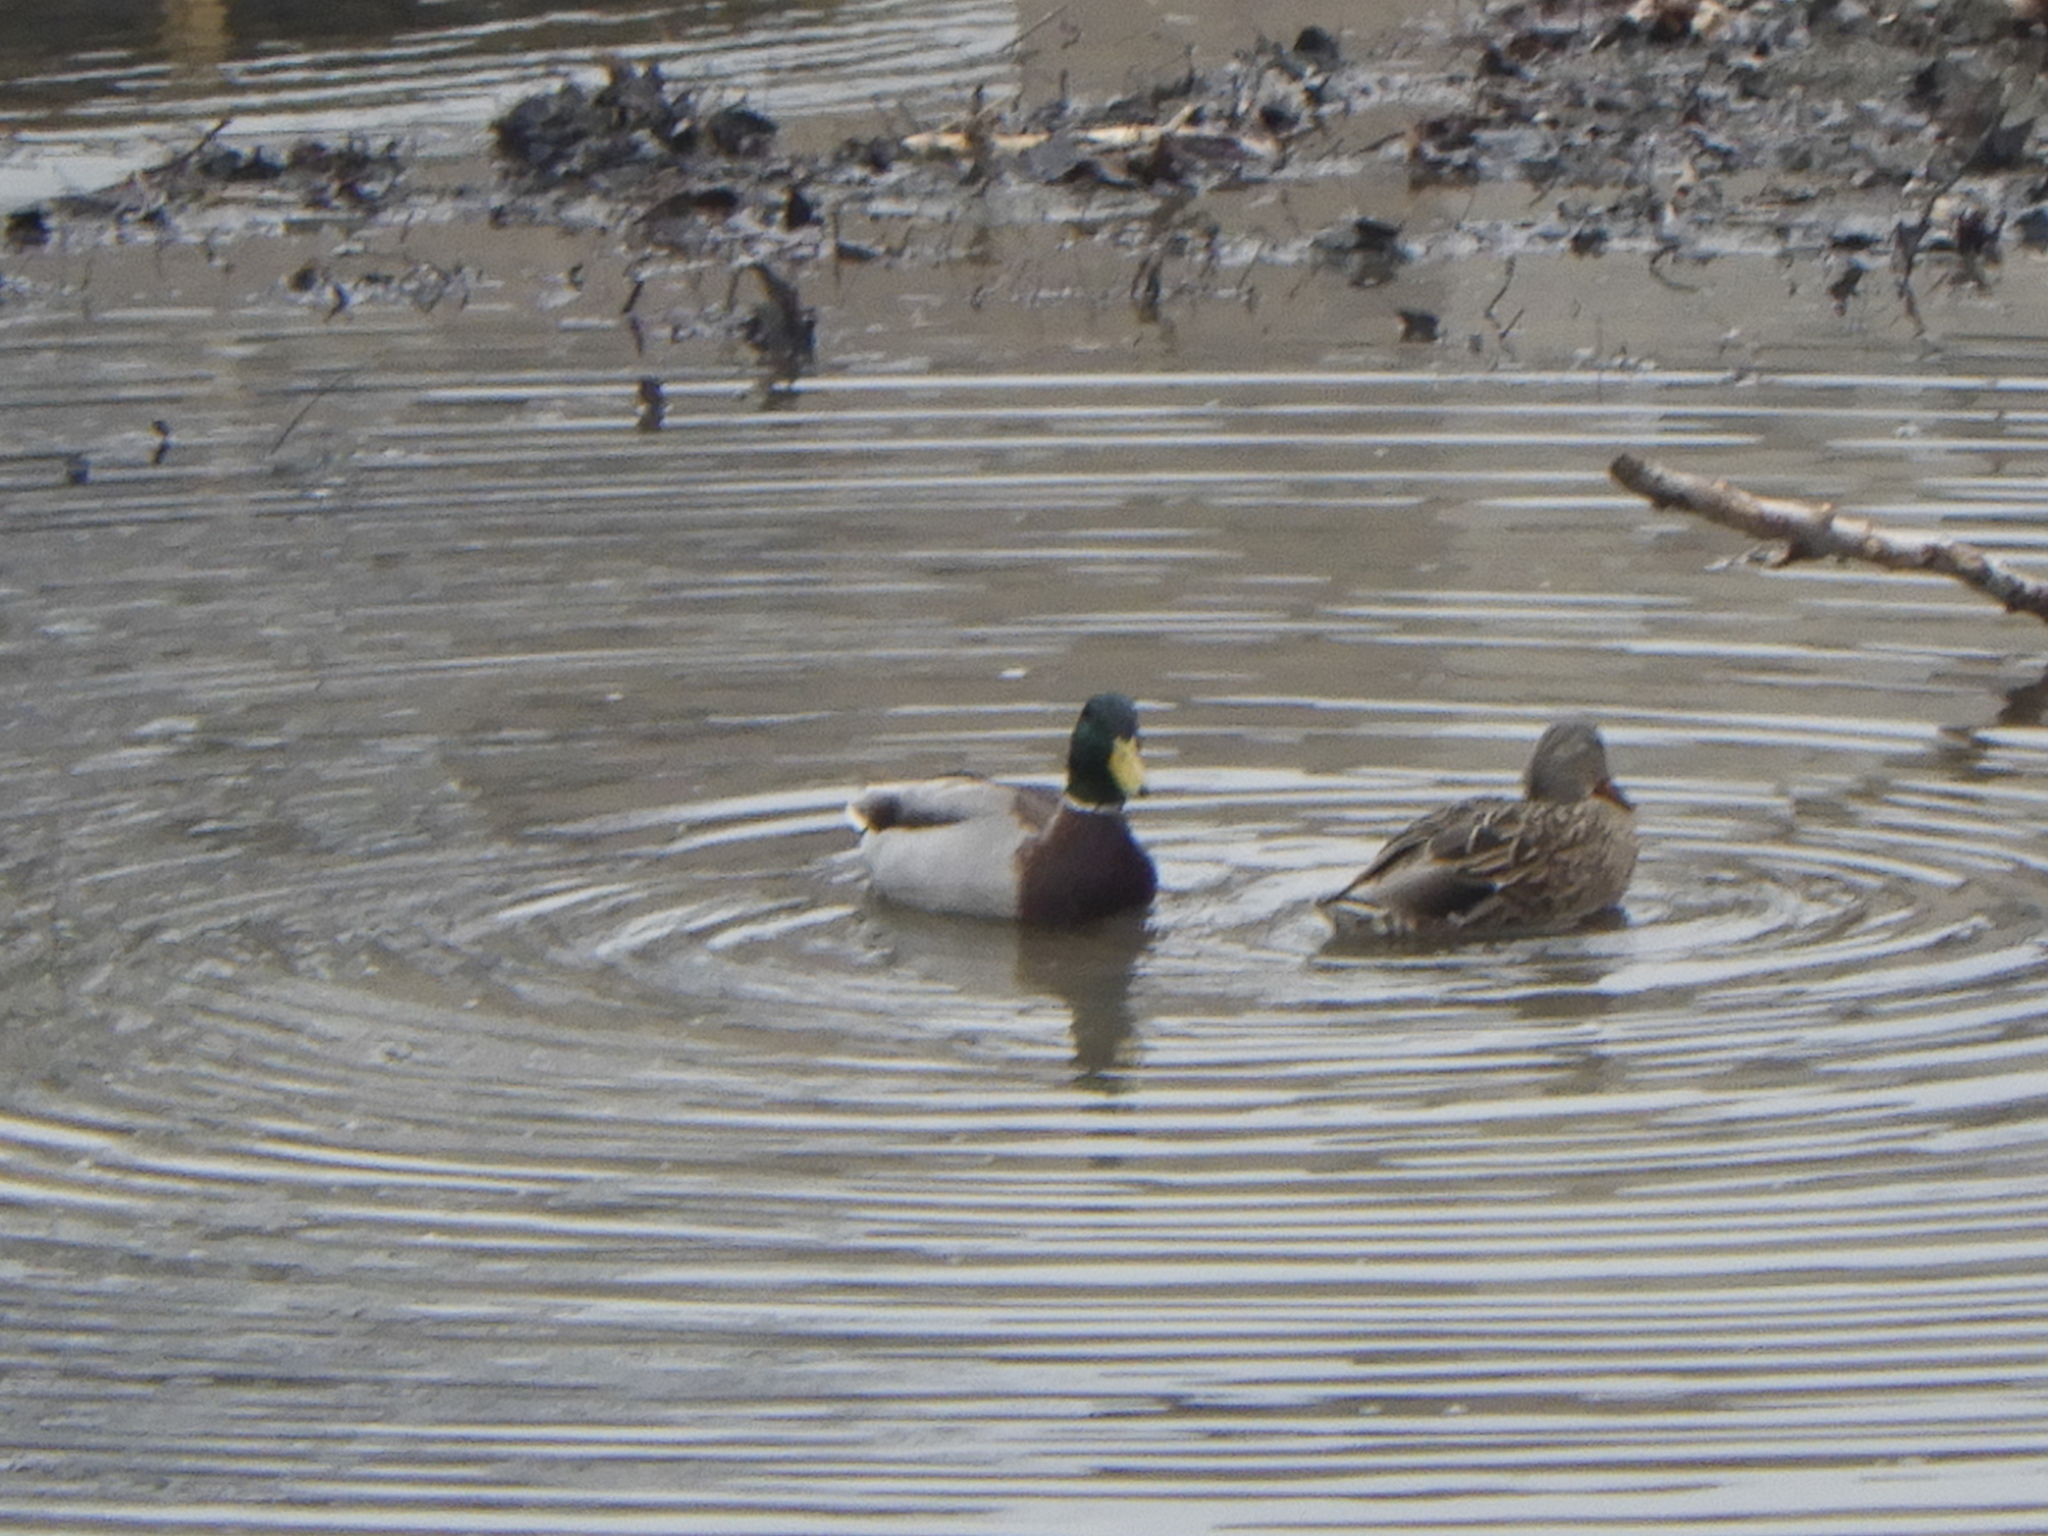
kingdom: Animalia
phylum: Chordata
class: Aves
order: Anseriformes
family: Anatidae
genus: Anas
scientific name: Anas platyrhynchos
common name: Mallard
